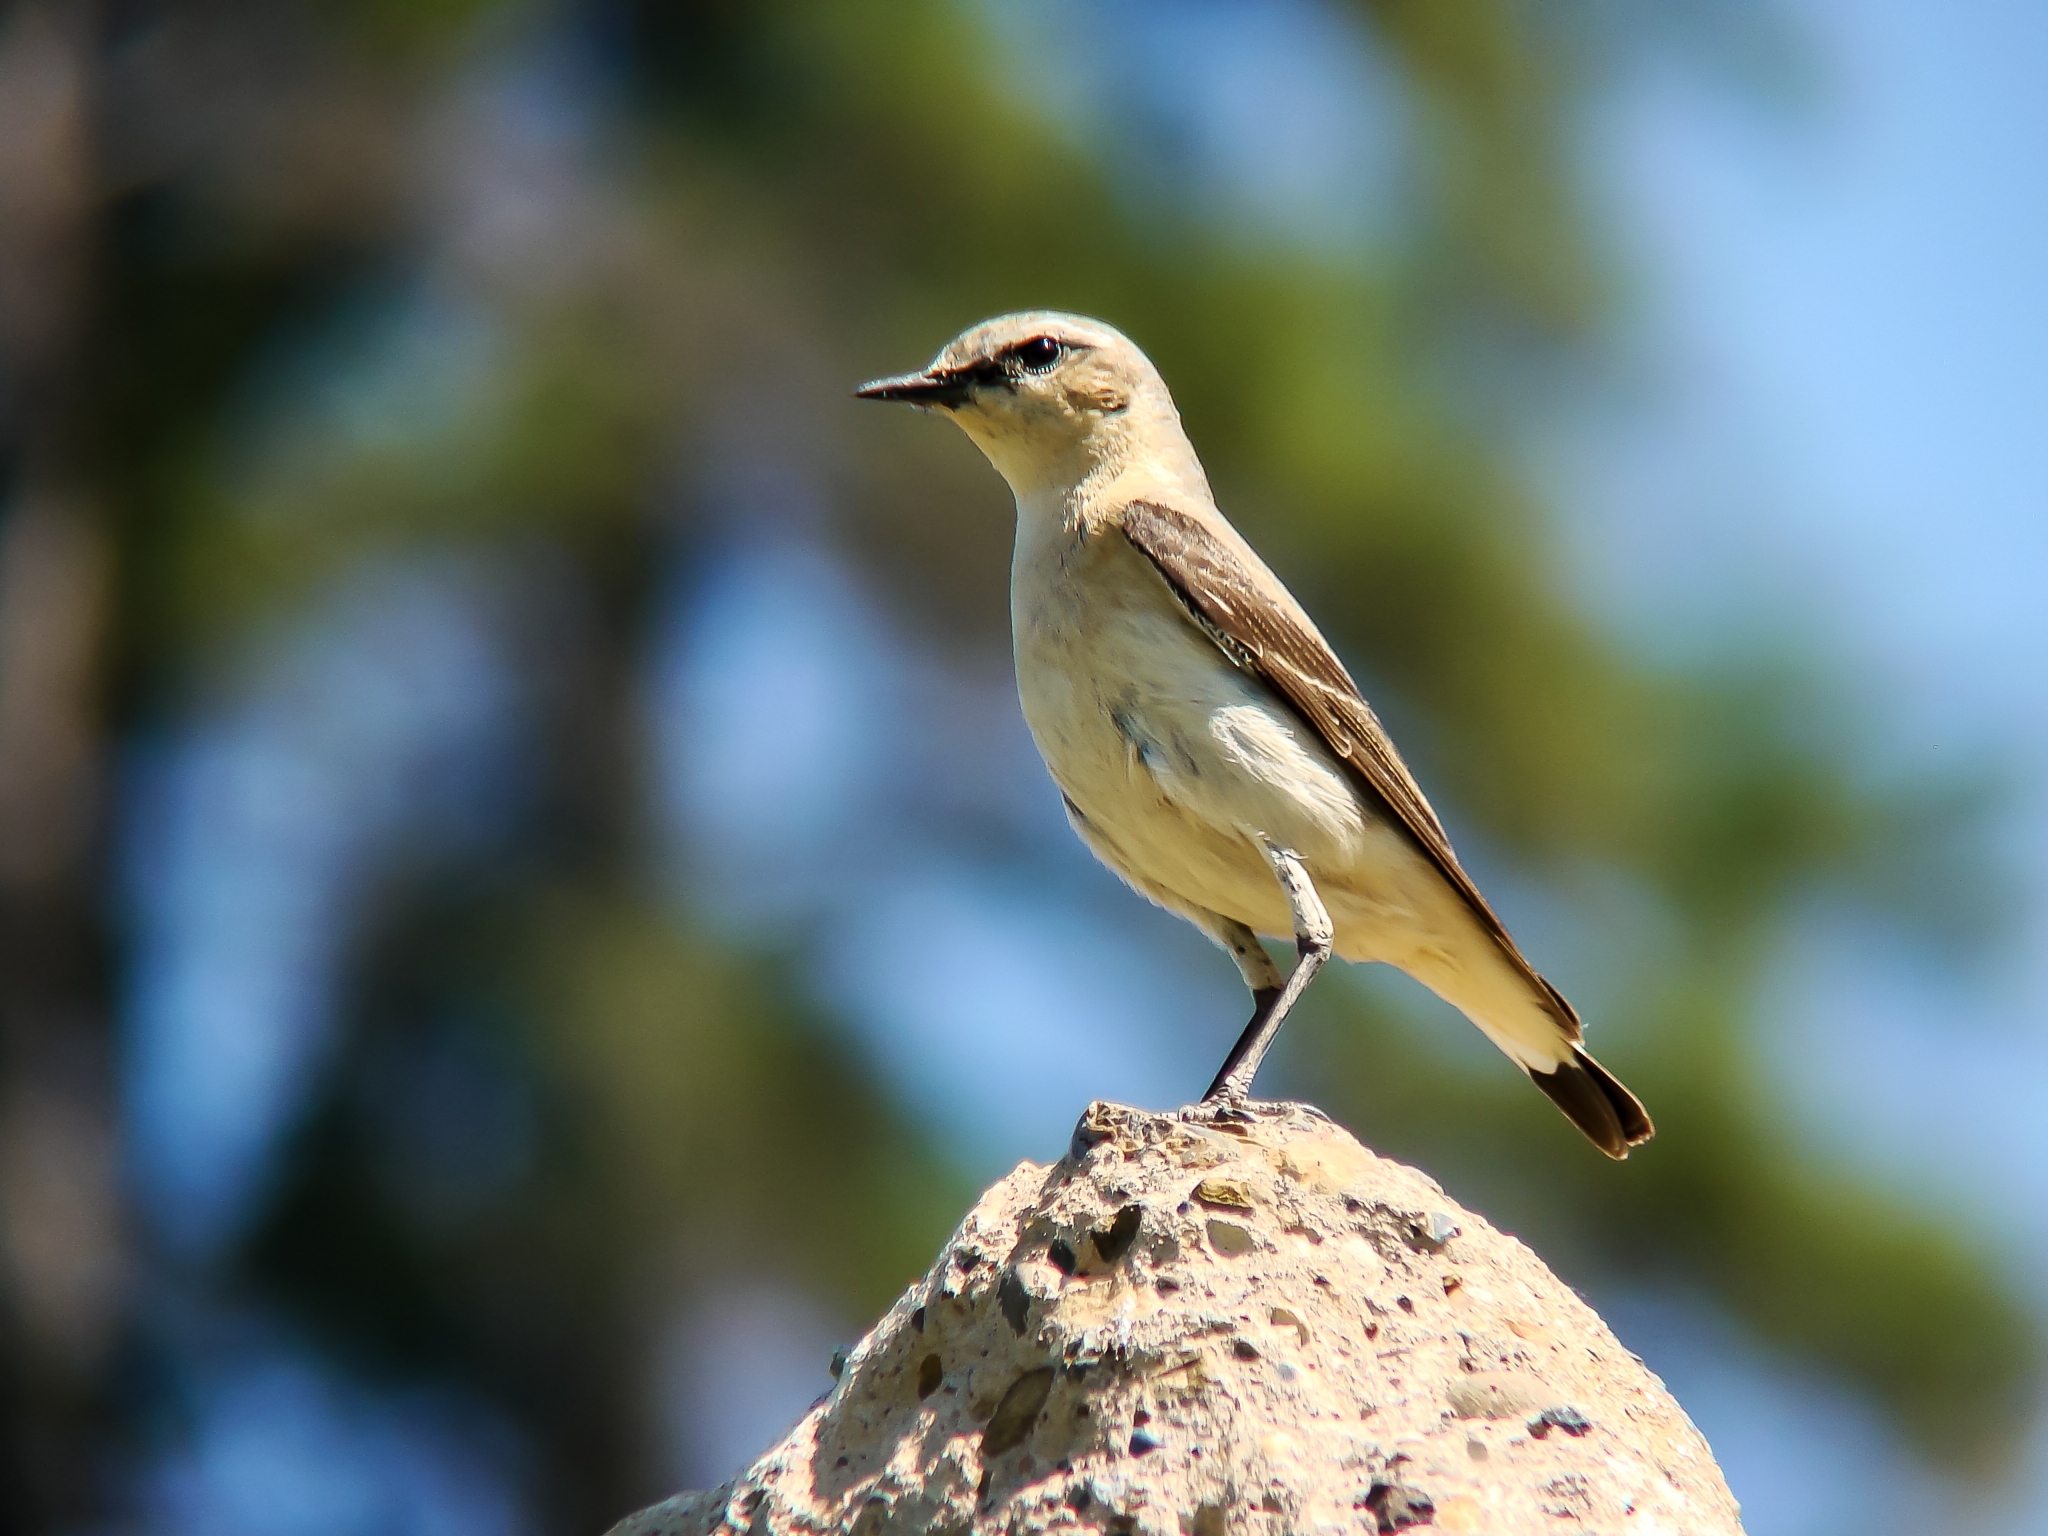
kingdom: Animalia
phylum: Chordata
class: Aves
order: Passeriformes
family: Muscicapidae
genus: Oenanthe
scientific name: Oenanthe oenanthe
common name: Northern wheatear
